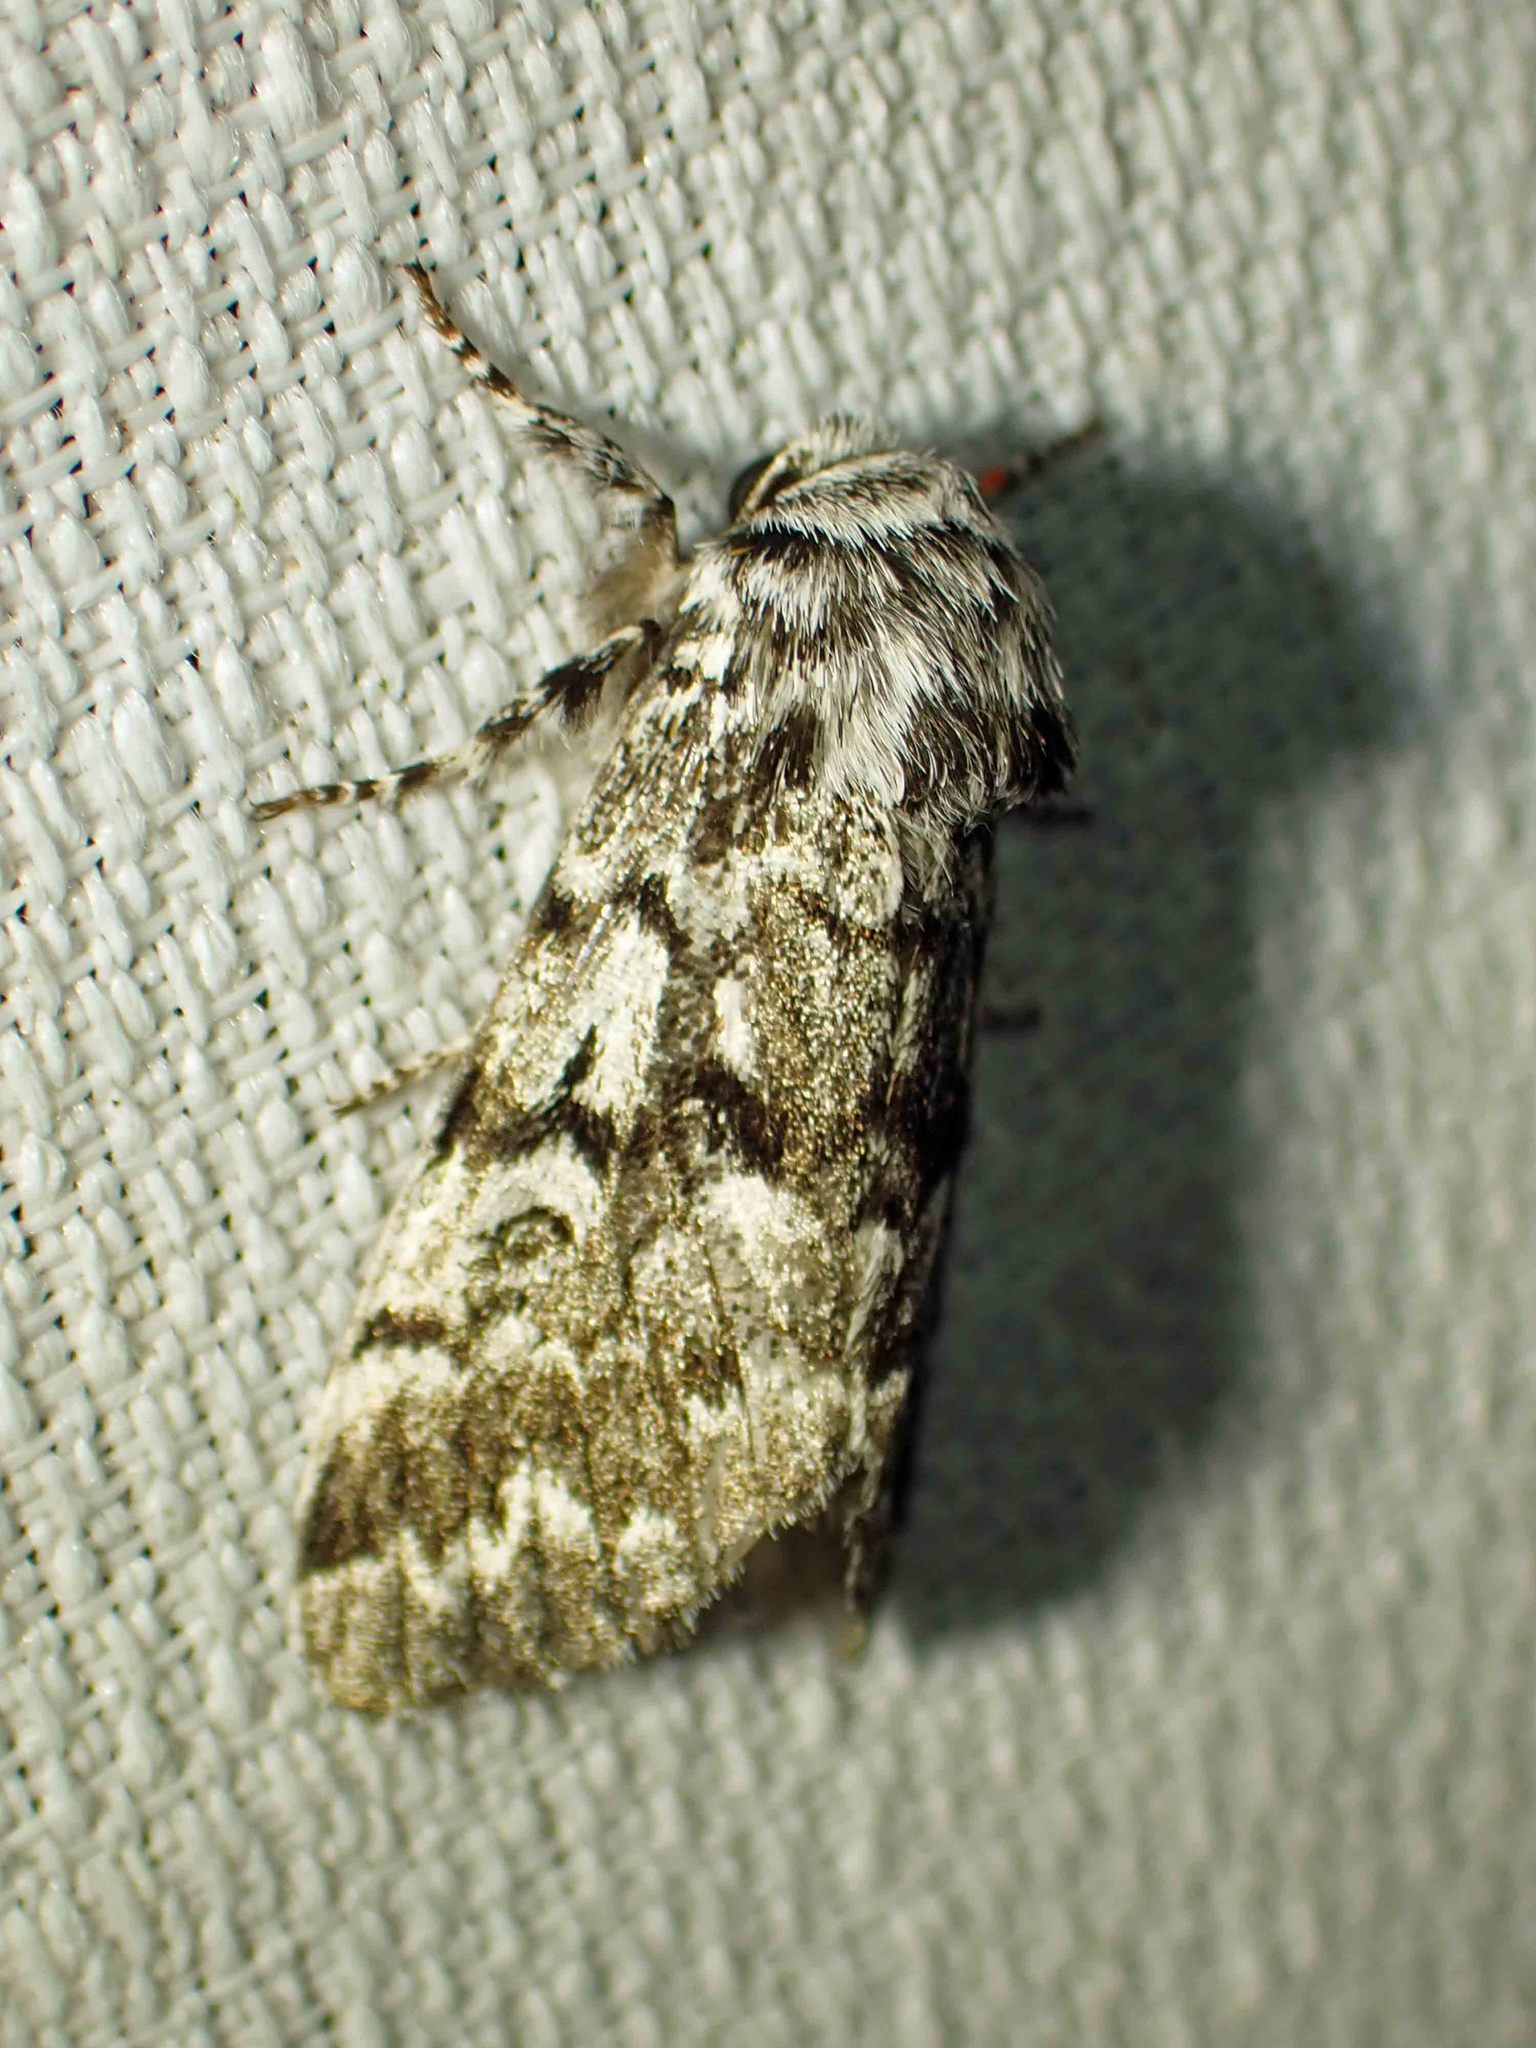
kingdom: Animalia
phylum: Arthropoda
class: Insecta
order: Lepidoptera
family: Noctuidae
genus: Panthea
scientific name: Panthea acronyctoides
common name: Black zigzag moth
